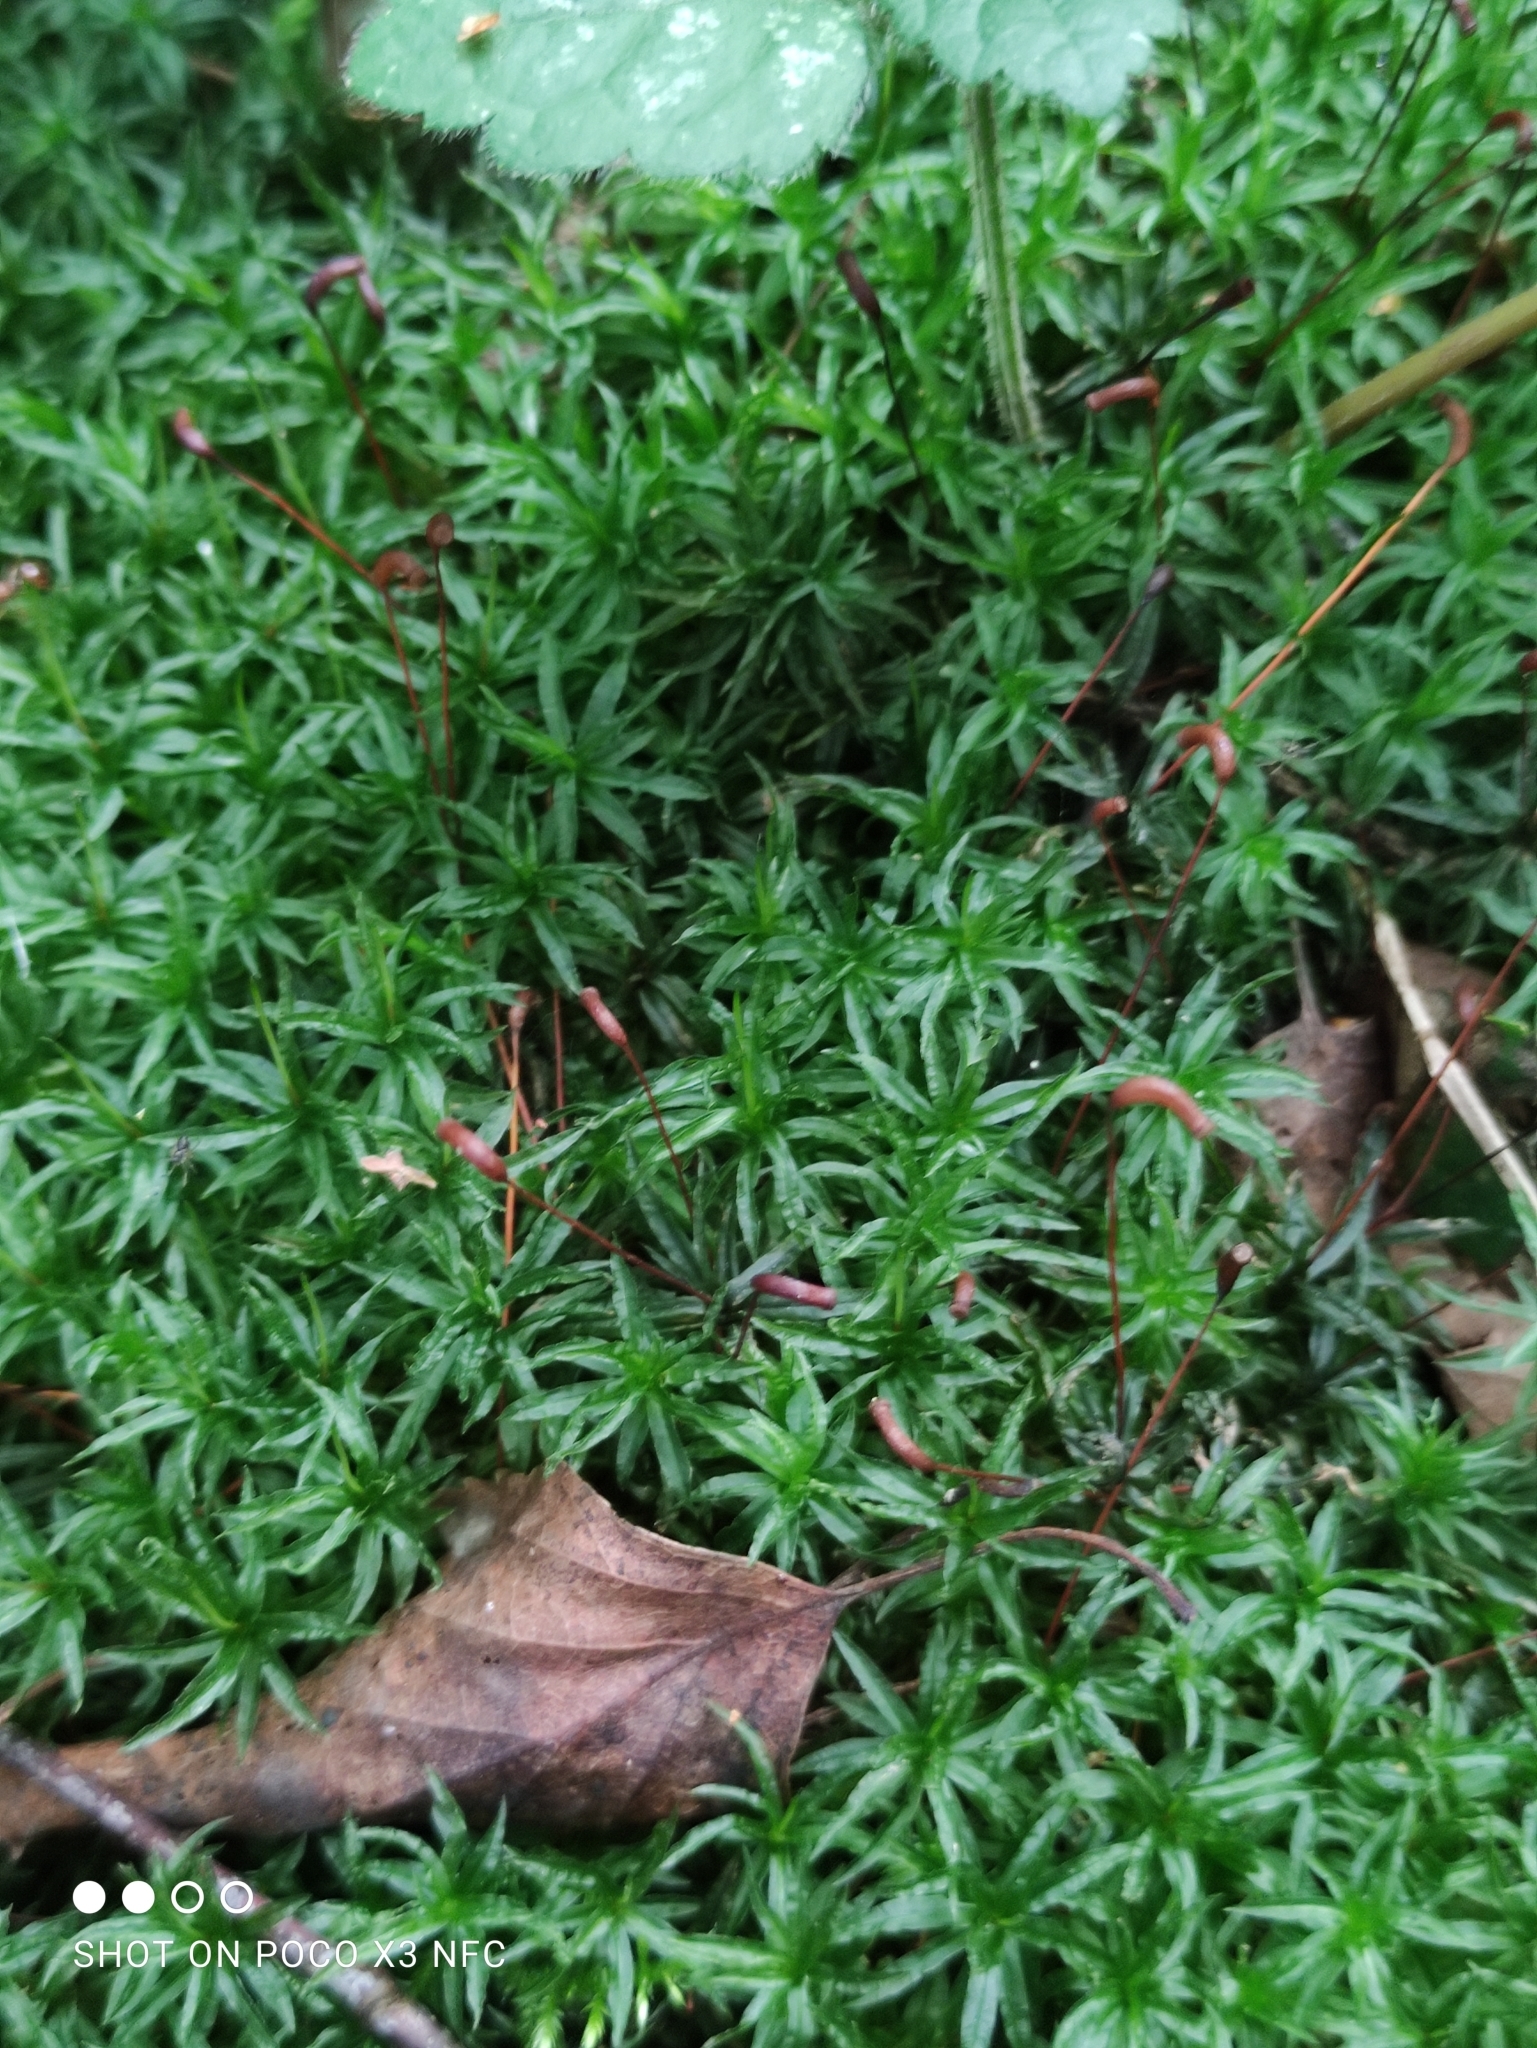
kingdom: Plantae
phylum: Bryophyta
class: Polytrichopsida
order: Polytrichales
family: Polytrichaceae
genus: Atrichum
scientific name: Atrichum undulatum
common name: Common smoothcap
